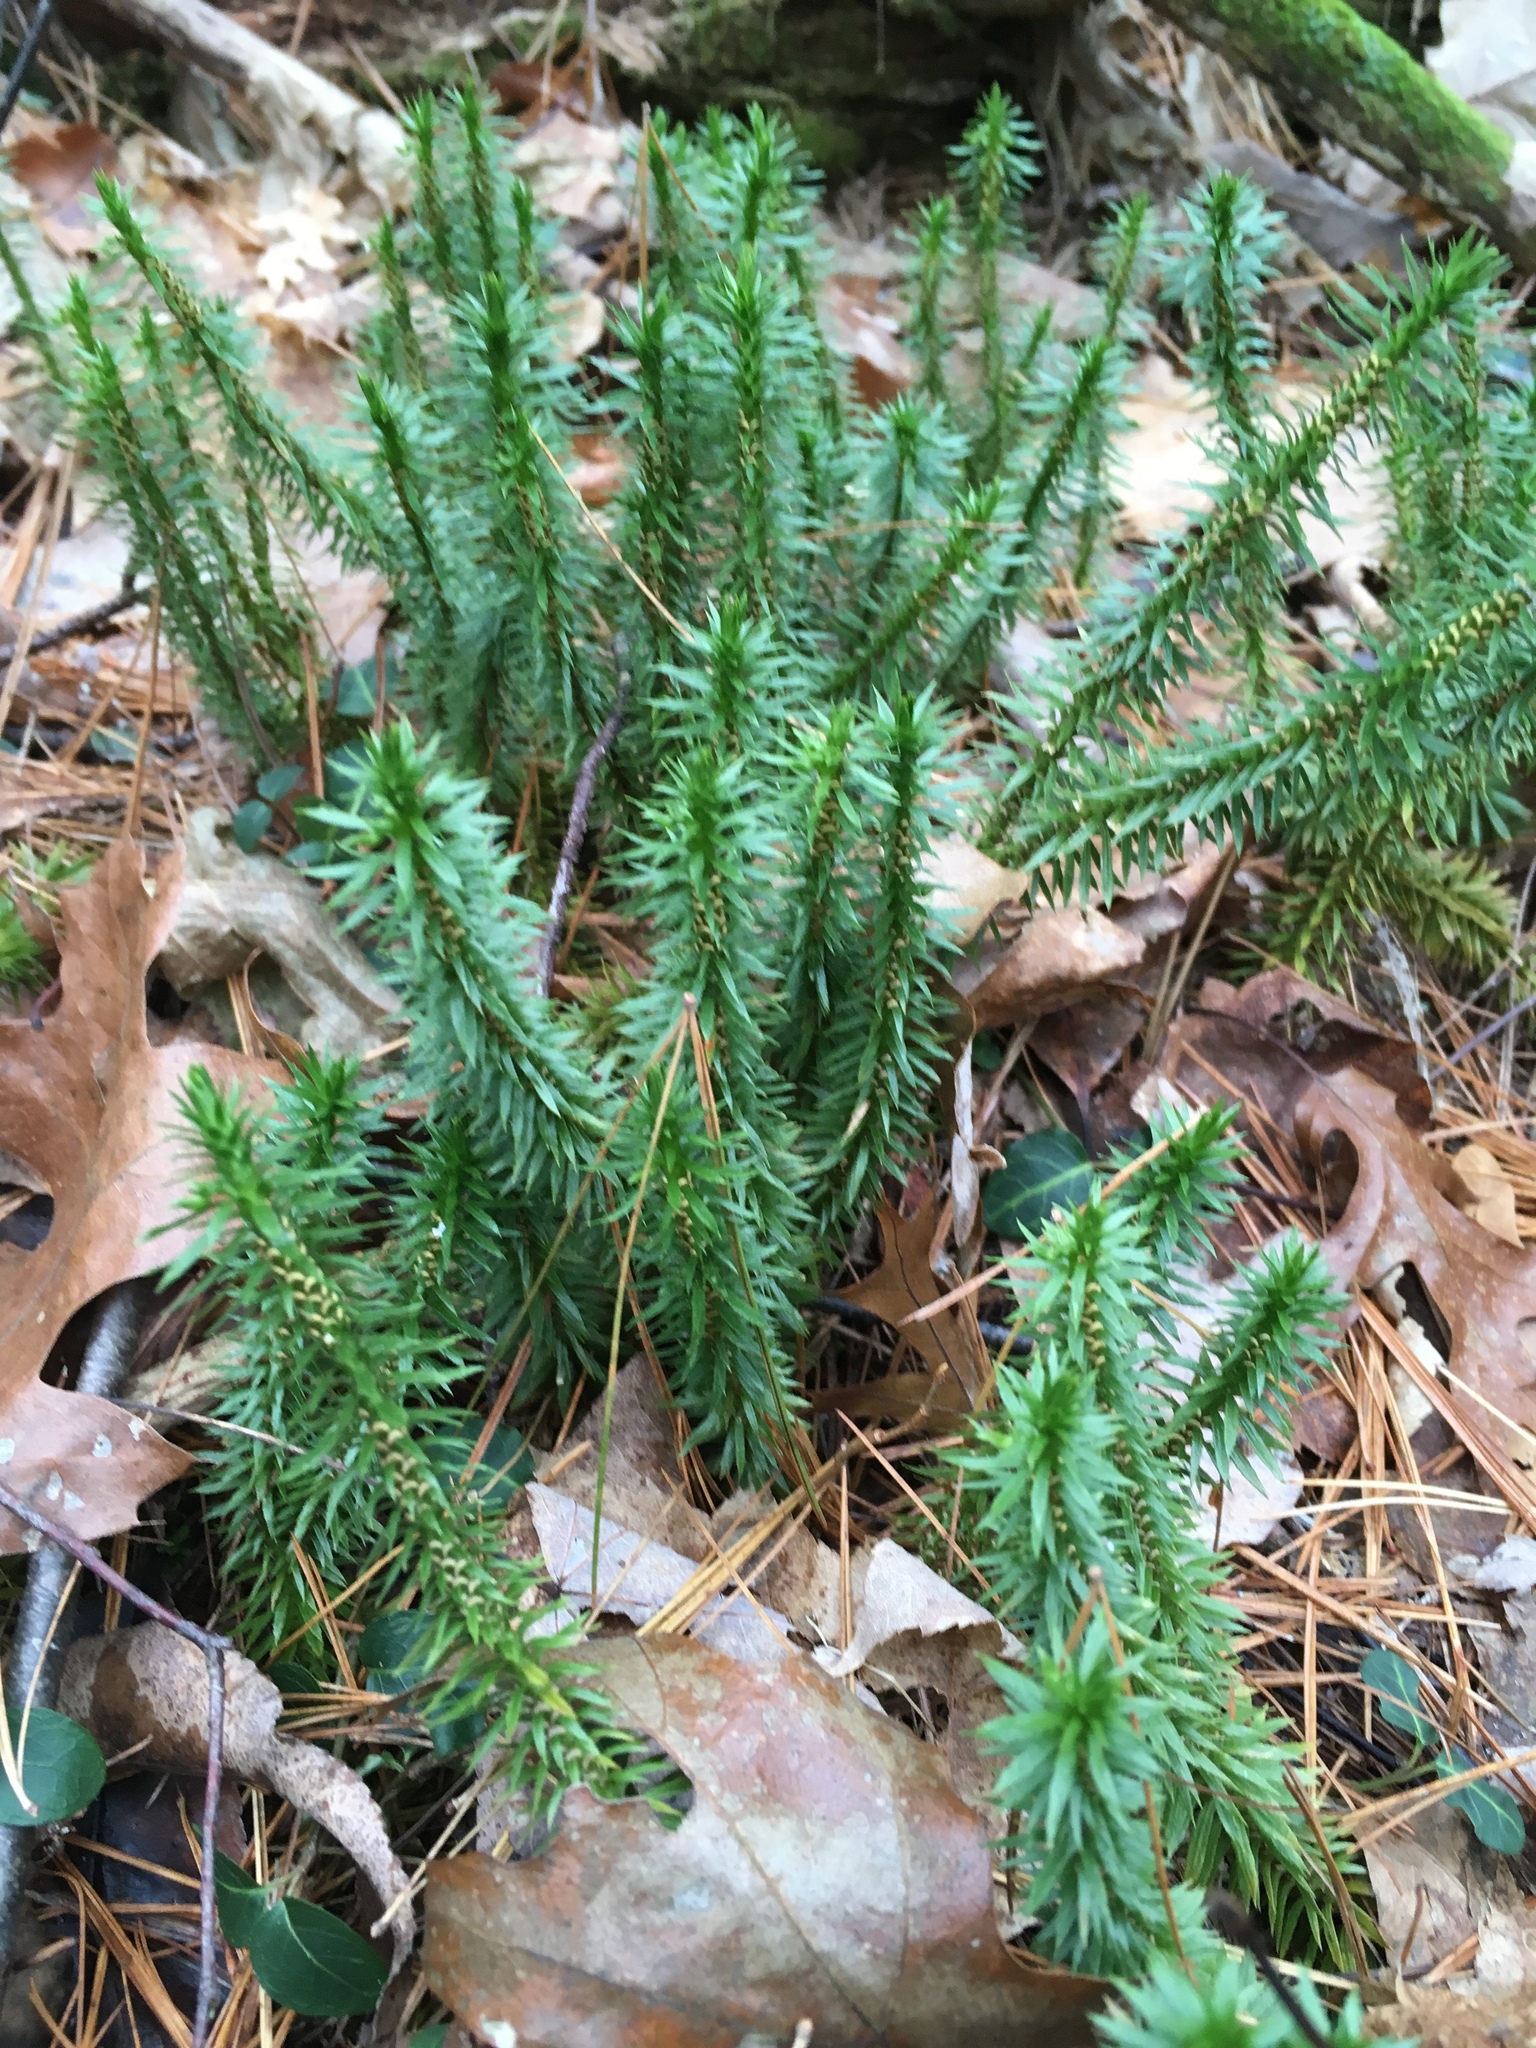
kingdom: Plantae
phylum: Tracheophyta
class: Lycopodiopsida
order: Lycopodiales
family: Lycopodiaceae
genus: Huperzia
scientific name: Huperzia lucidula
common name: Shining clubmoss
